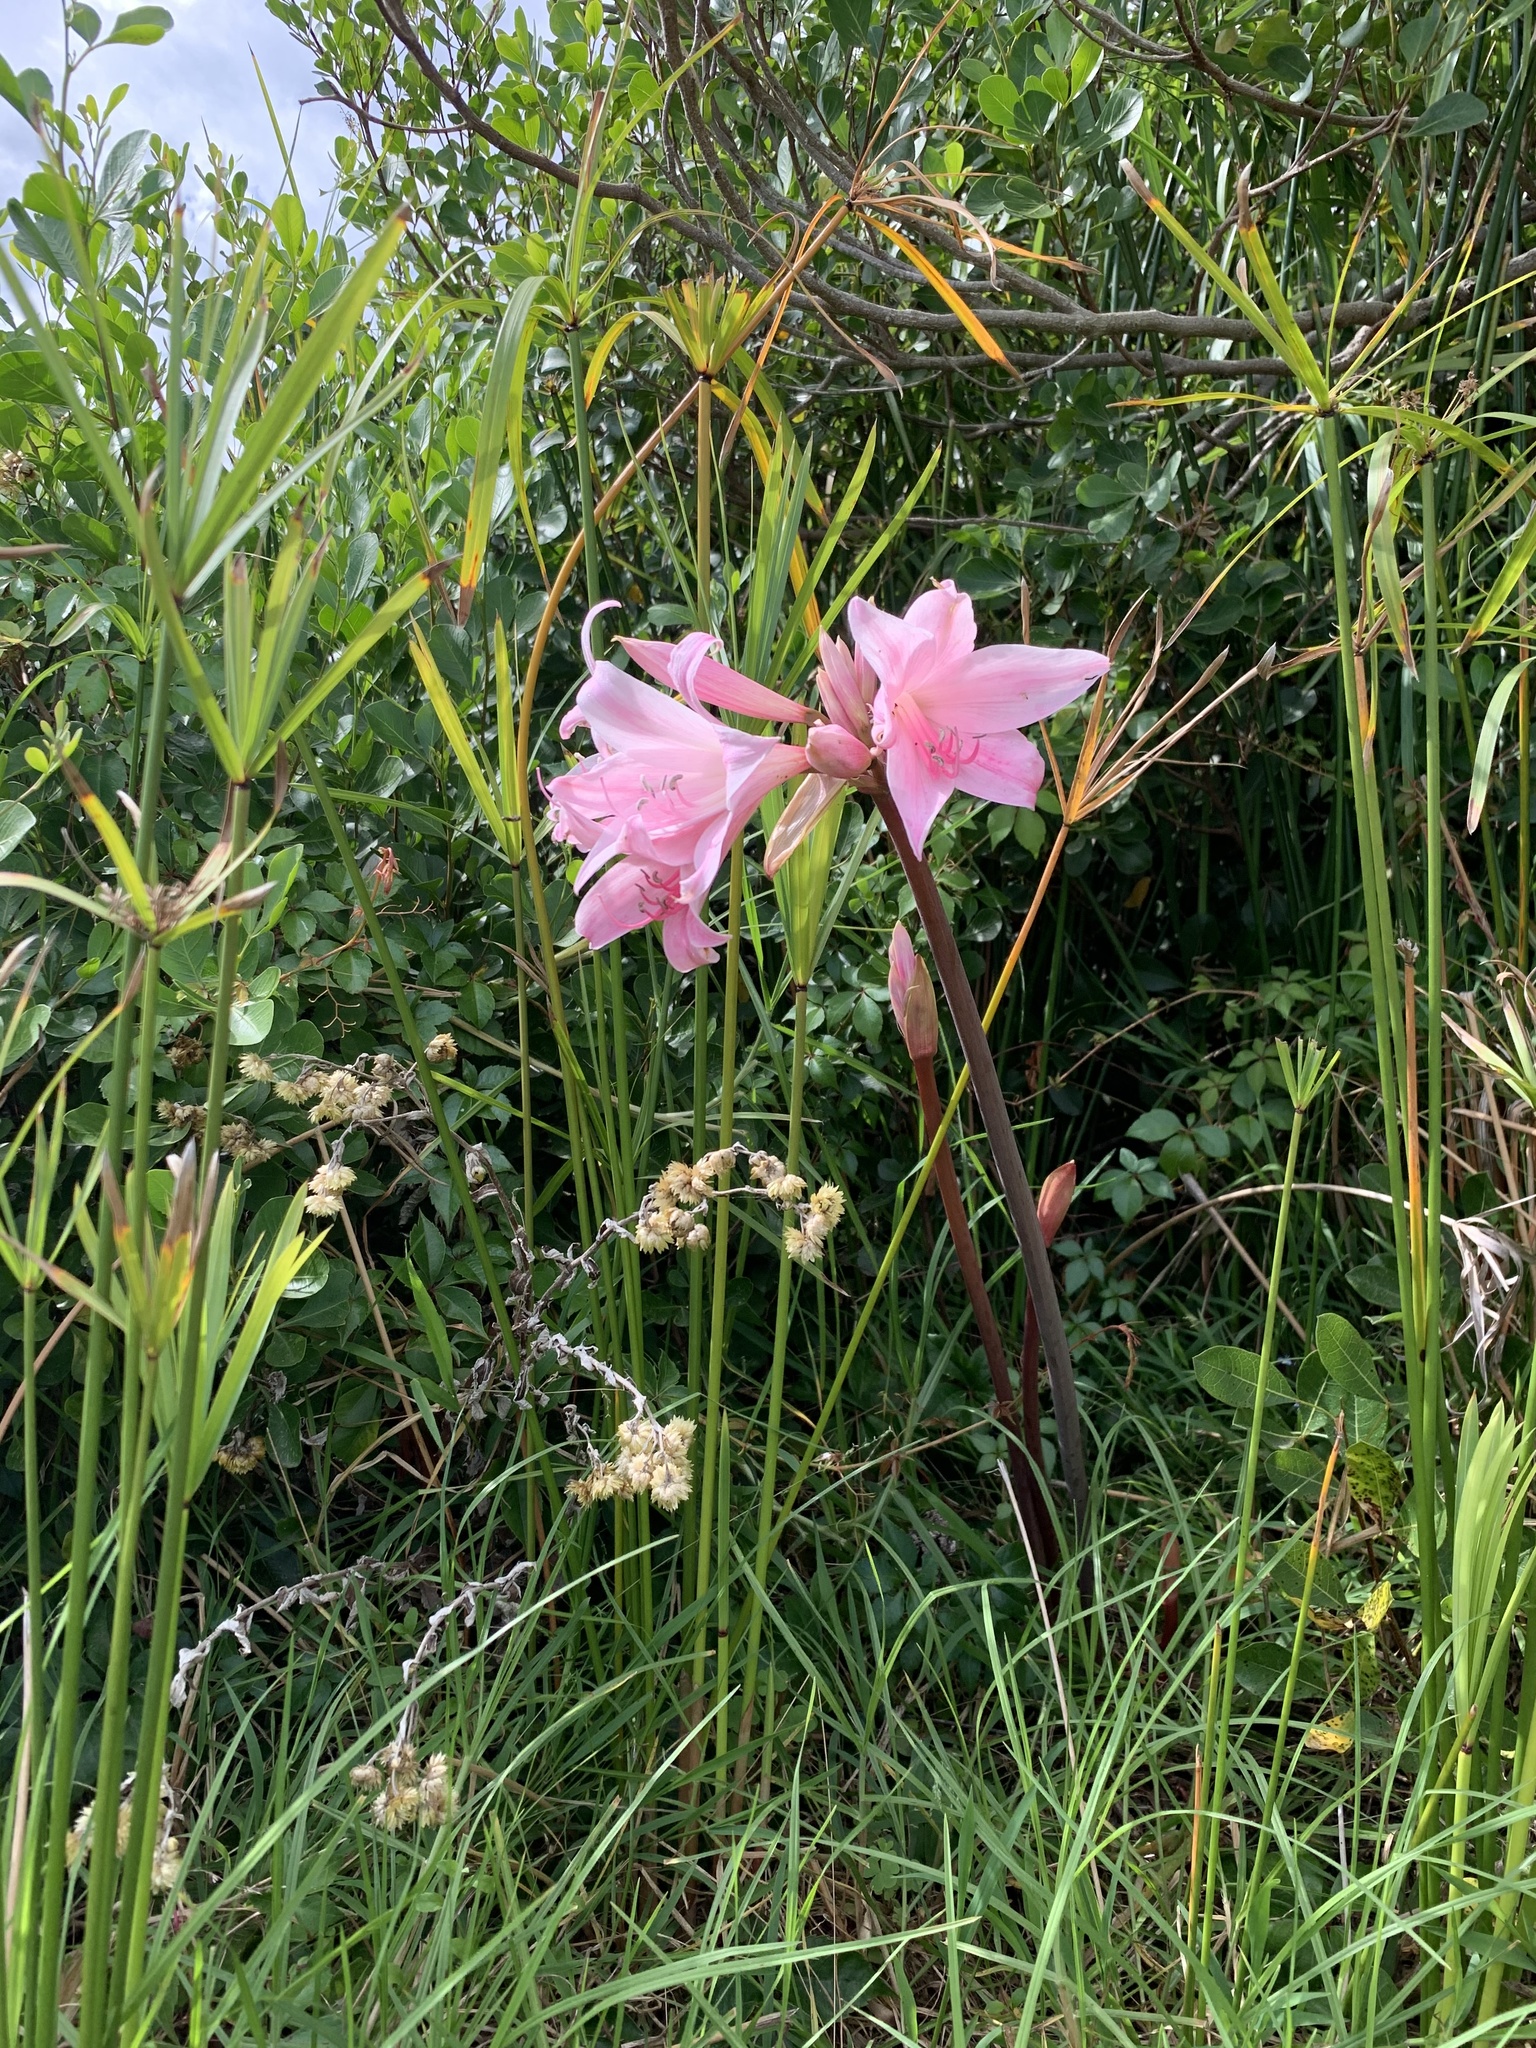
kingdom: Plantae
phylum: Tracheophyta
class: Liliopsida
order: Asparagales
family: Amaryllidaceae
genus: Amaryllis
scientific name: Amaryllis belladonna
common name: Jersey lily
